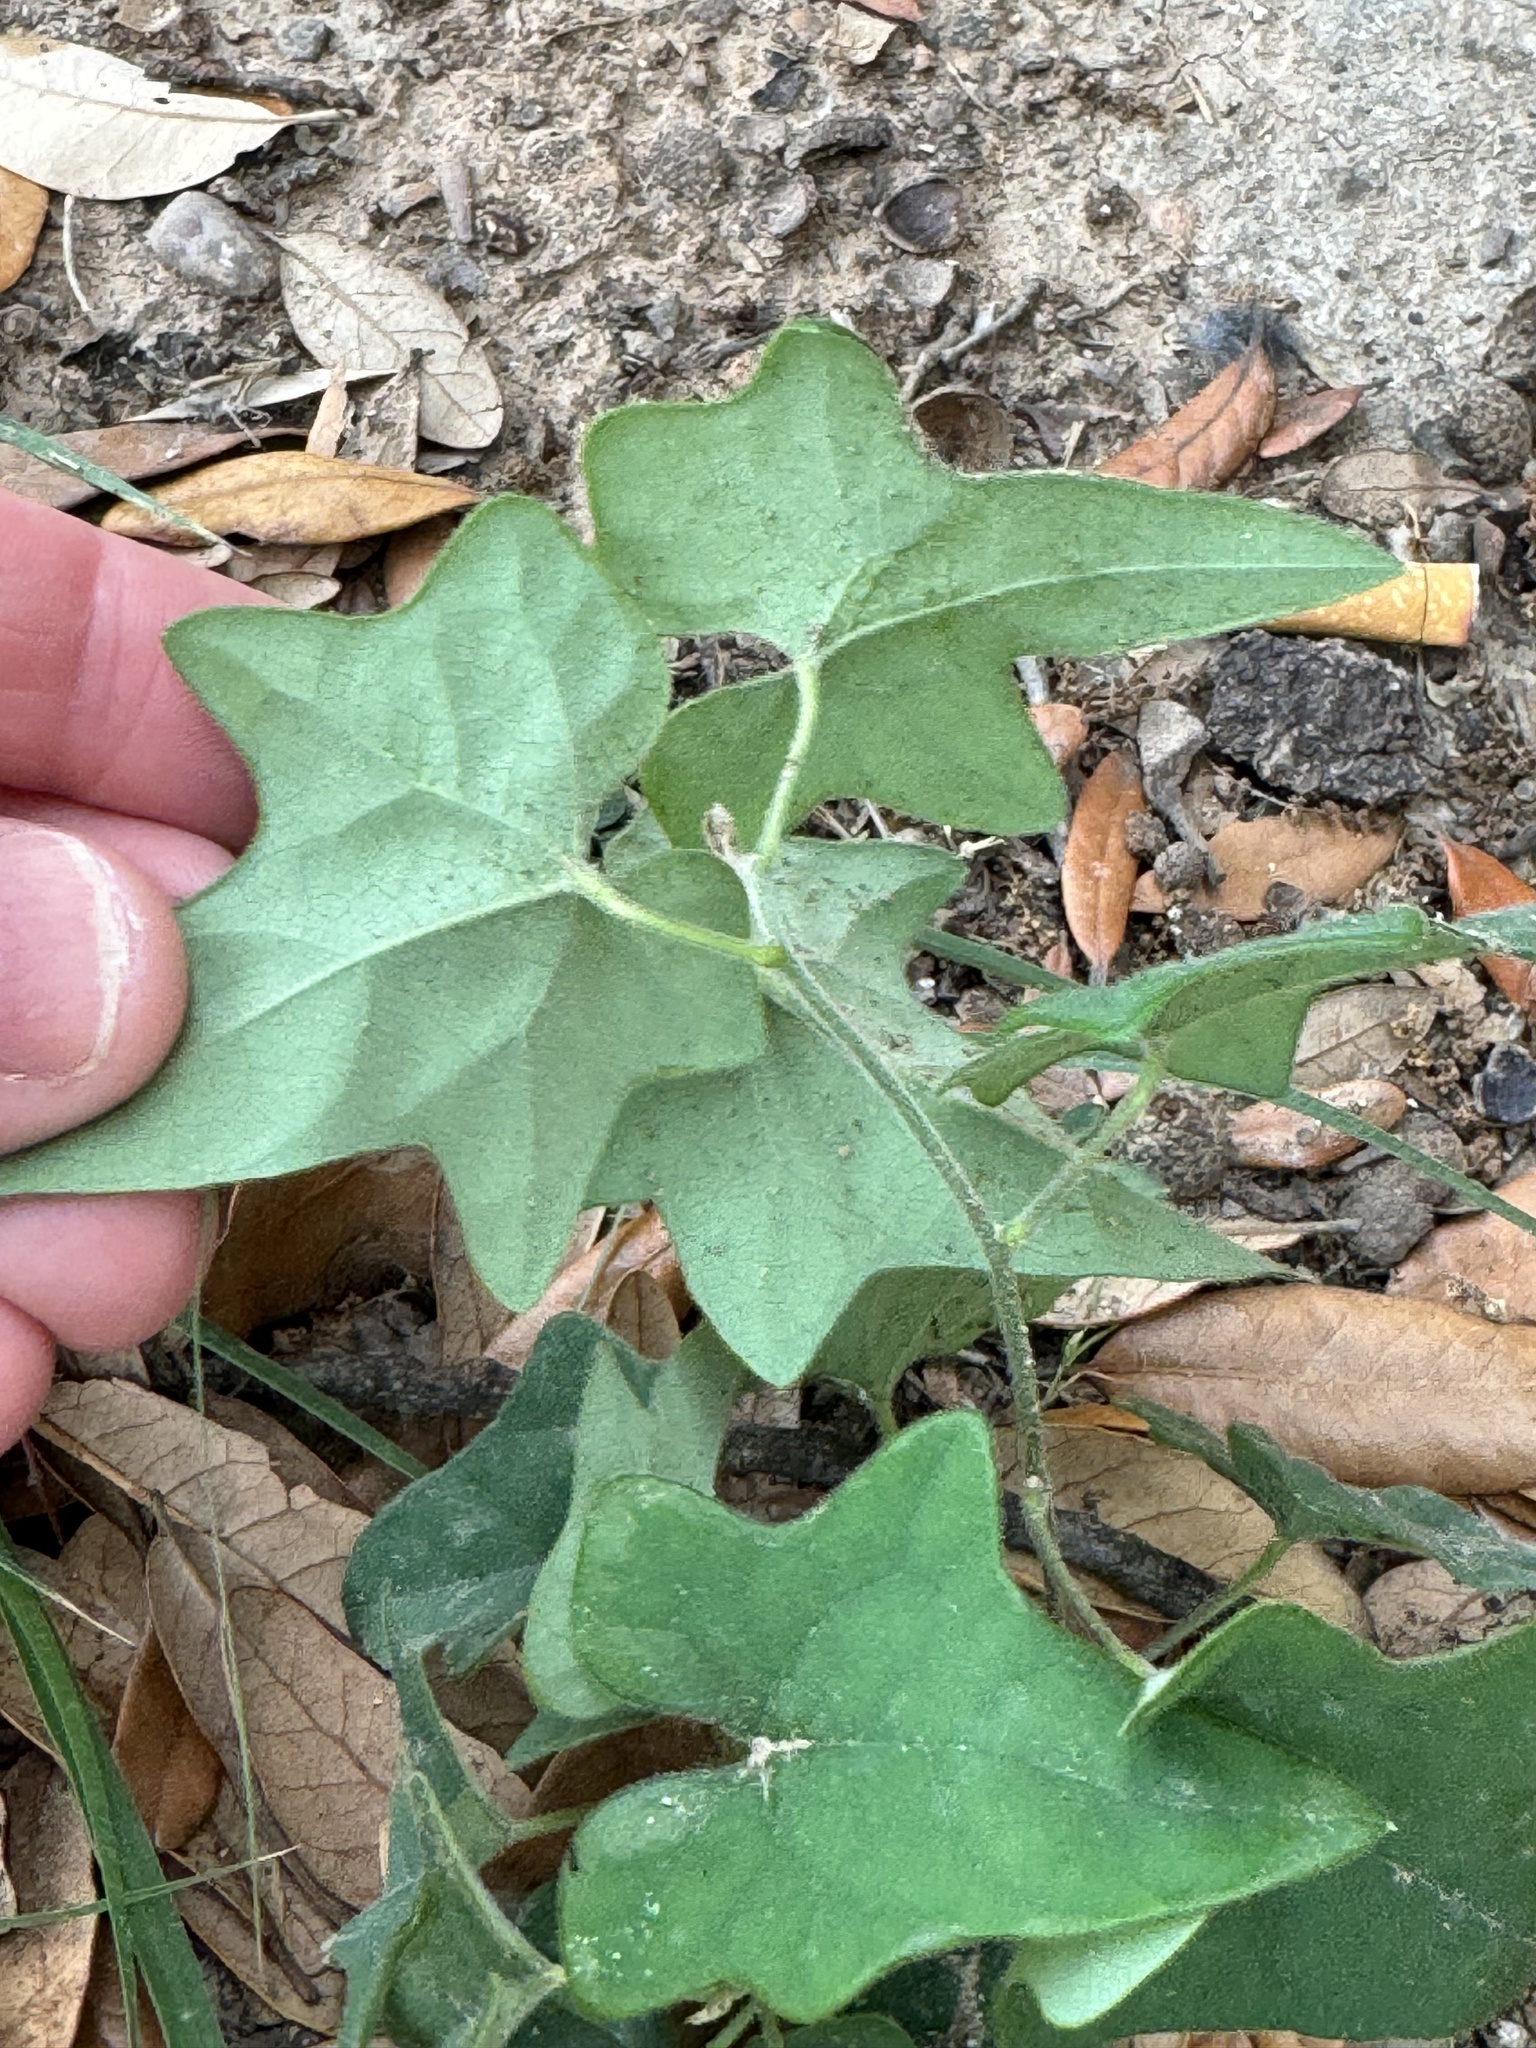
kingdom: Plantae
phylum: Tracheophyta
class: Magnoliopsida
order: Ranunculales
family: Menispermaceae
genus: Cocculus
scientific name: Cocculus carolinus
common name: Carolina moonseed
